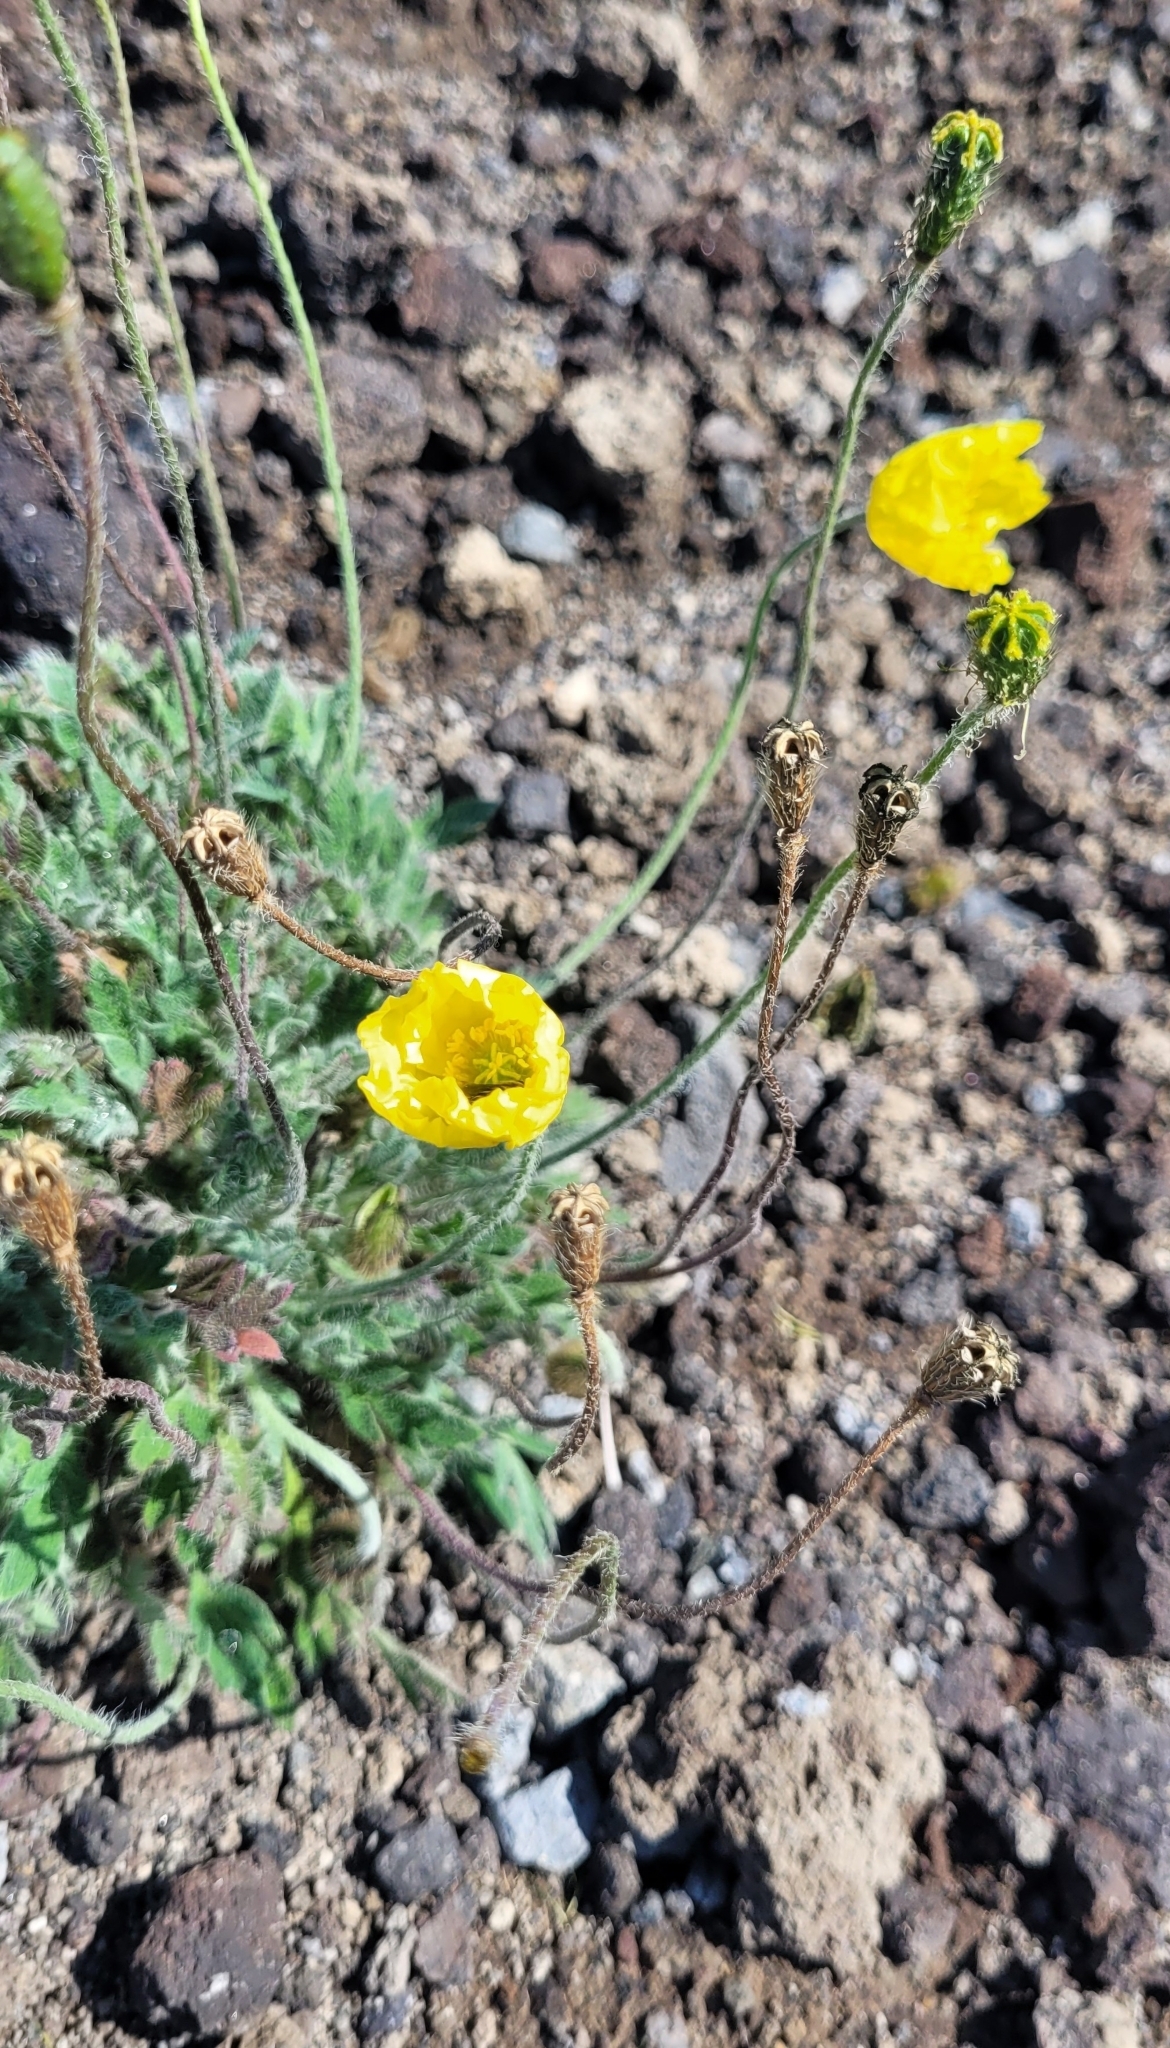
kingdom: Plantae
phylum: Tracheophyta
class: Magnoliopsida
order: Ranunculales
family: Papaveraceae
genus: Papaver
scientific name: Papaver microcarpum
